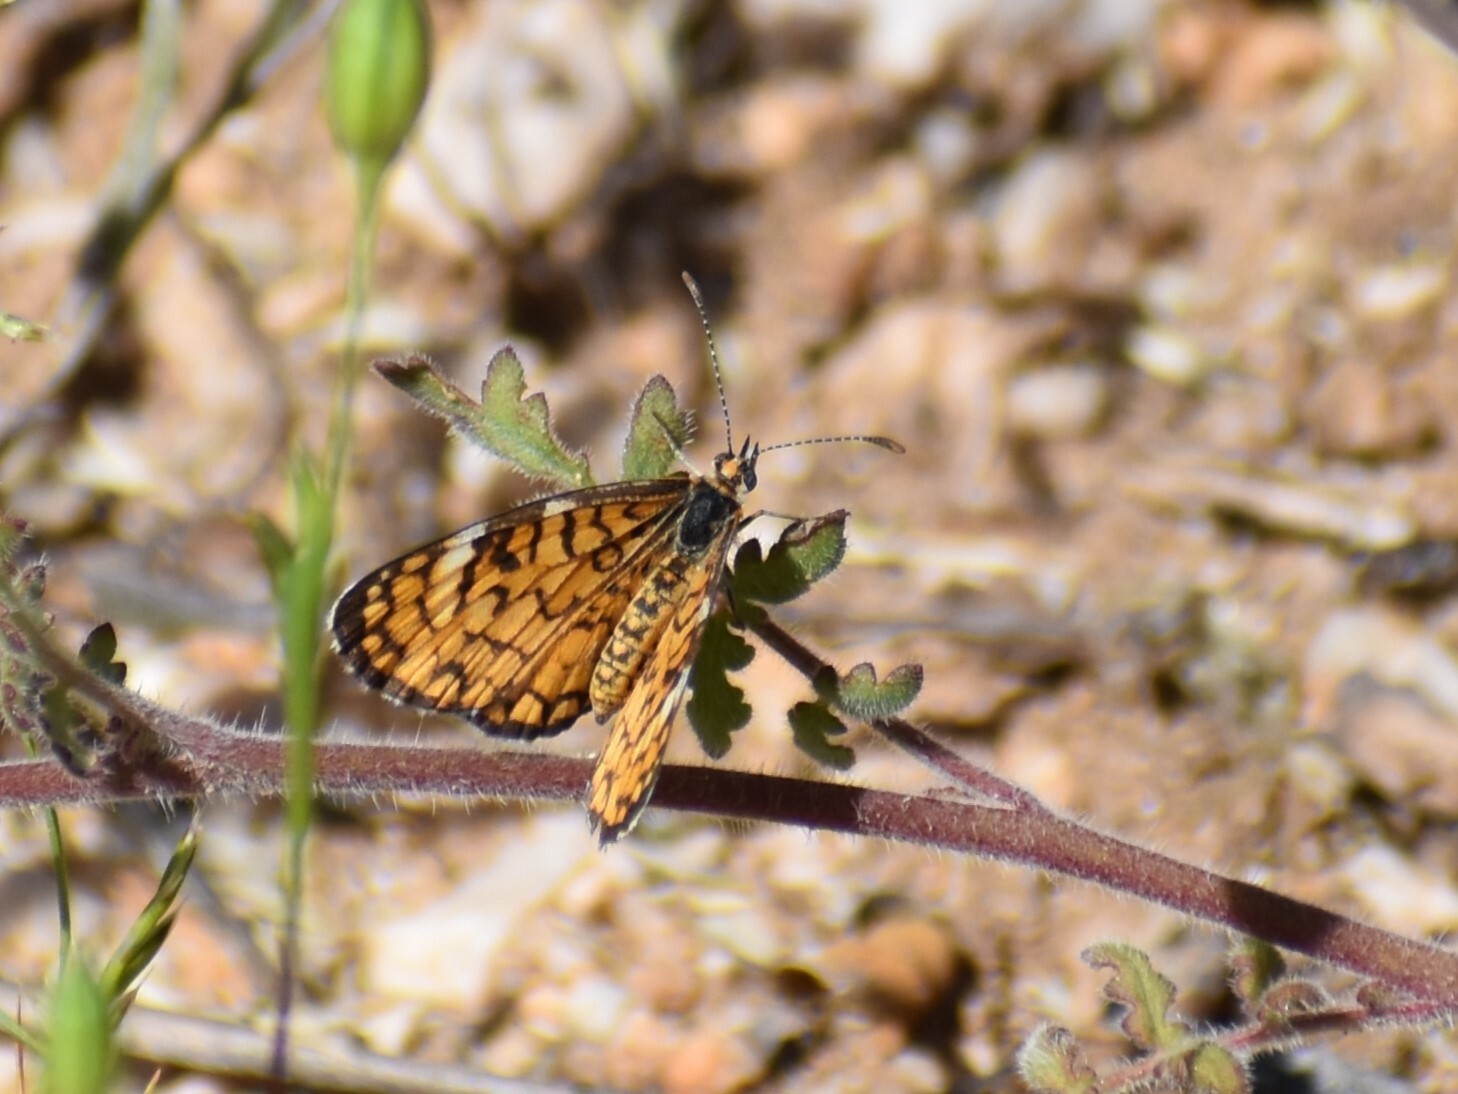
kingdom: Animalia
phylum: Arthropoda
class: Insecta
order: Lepidoptera
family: Nymphalidae
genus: Dymasia
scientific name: Dymasia dymas
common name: Tiny checkerspot
